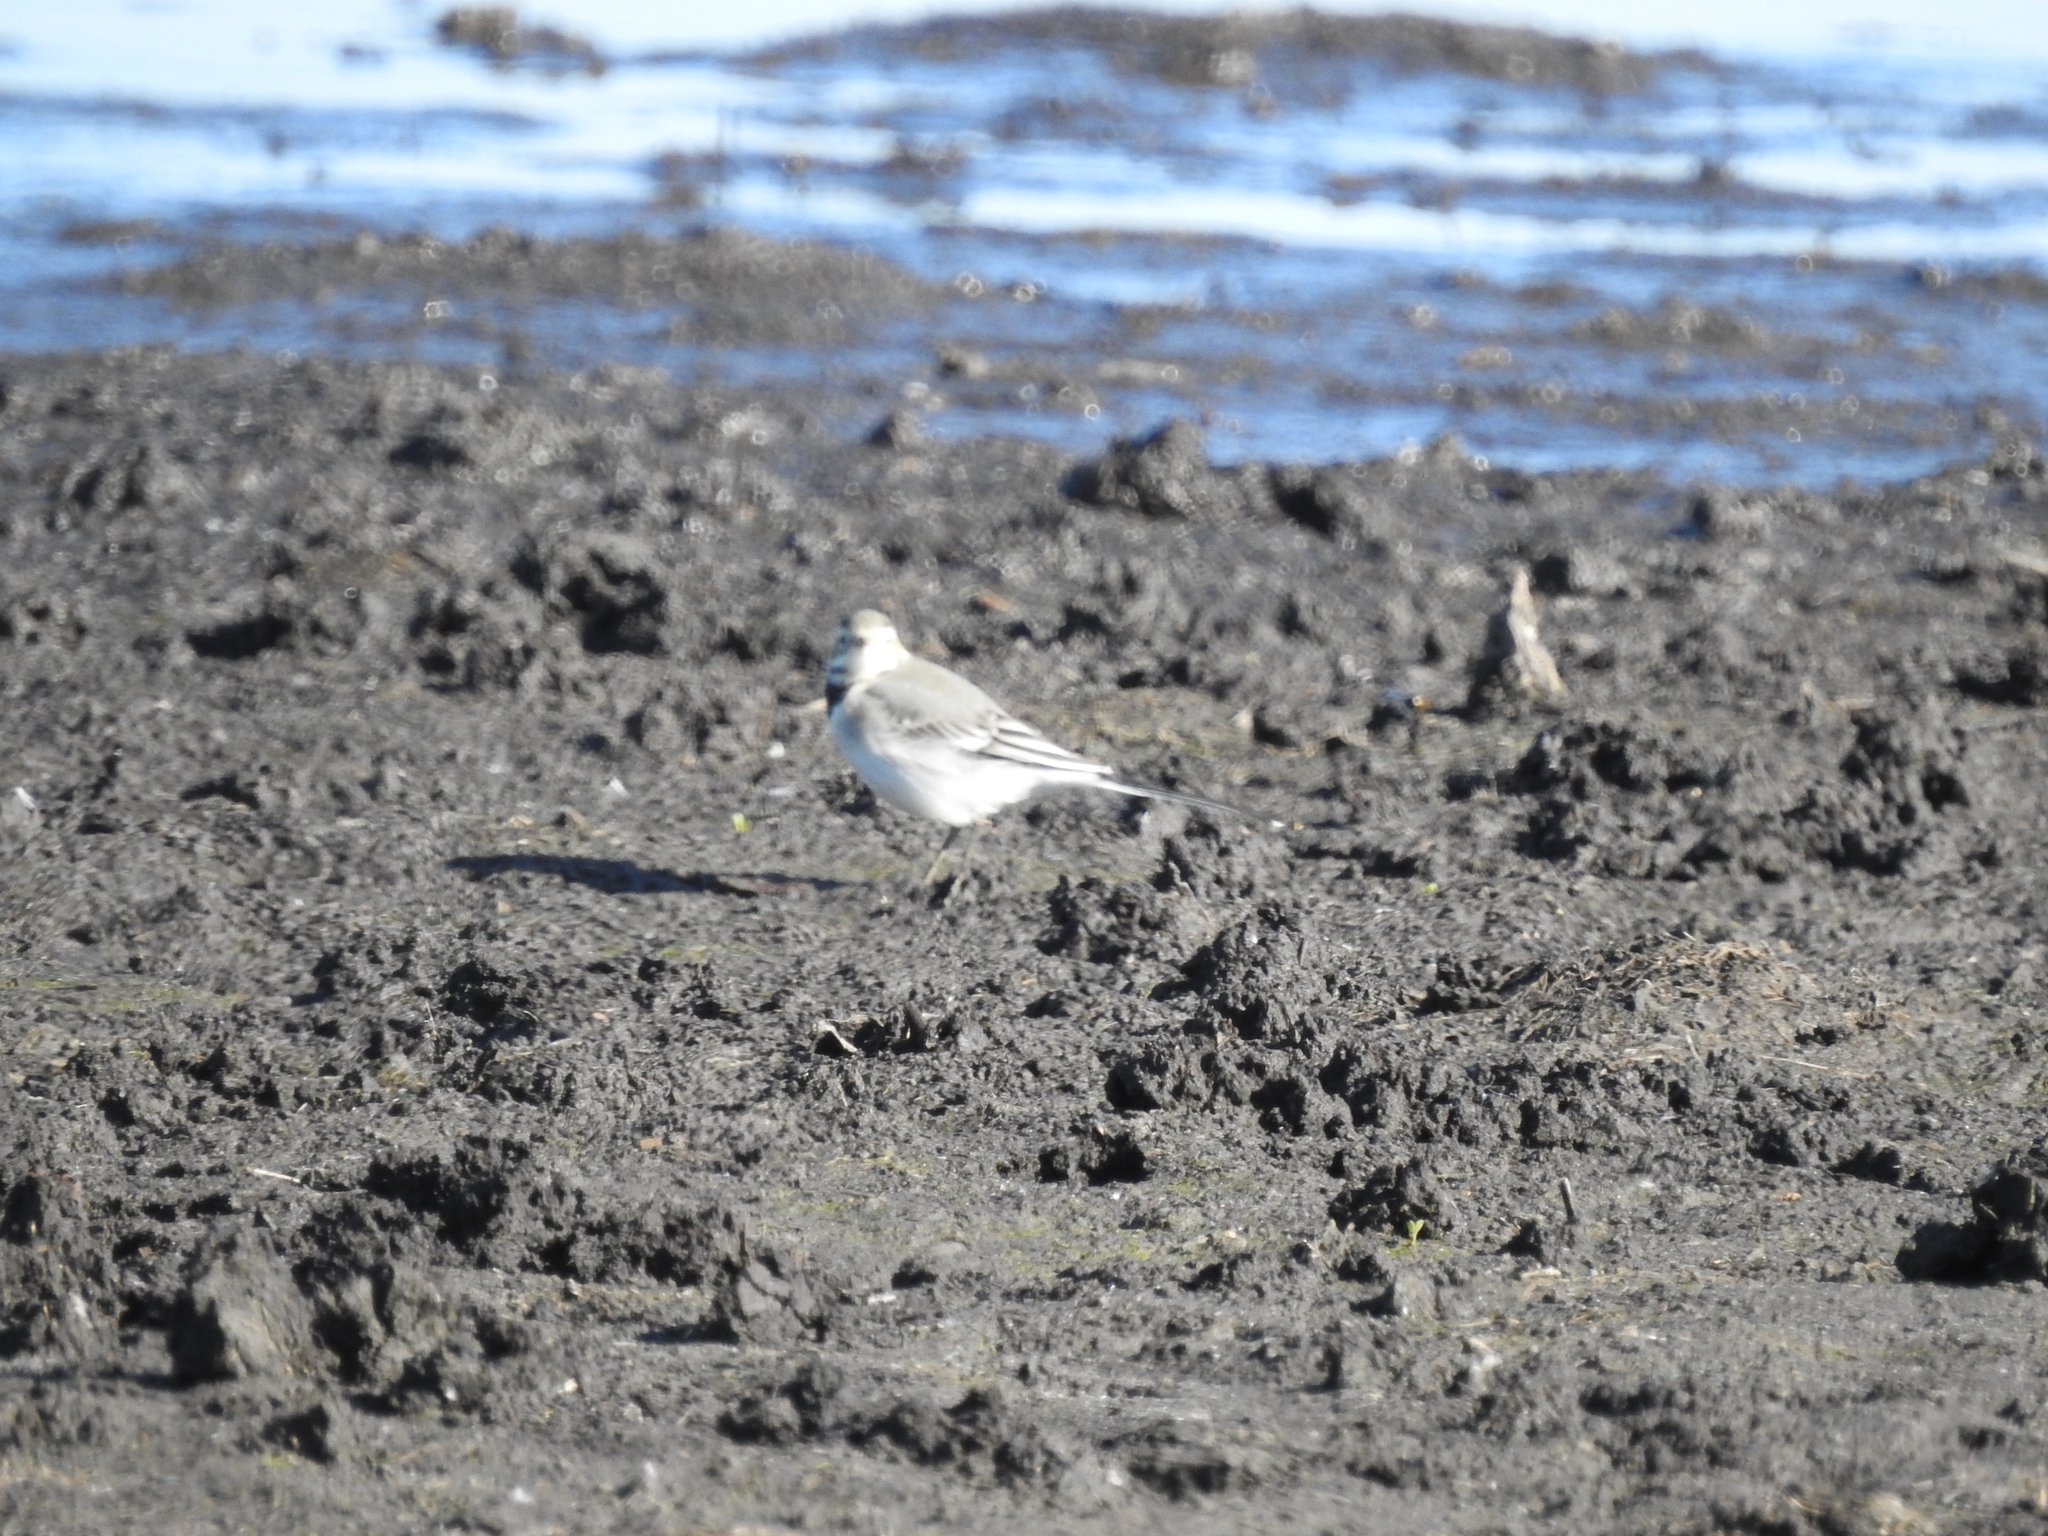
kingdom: Animalia
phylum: Chordata
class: Aves
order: Passeriformes
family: Motacillidae
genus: Motacilla
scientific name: Motacilla alba
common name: White wagtail
